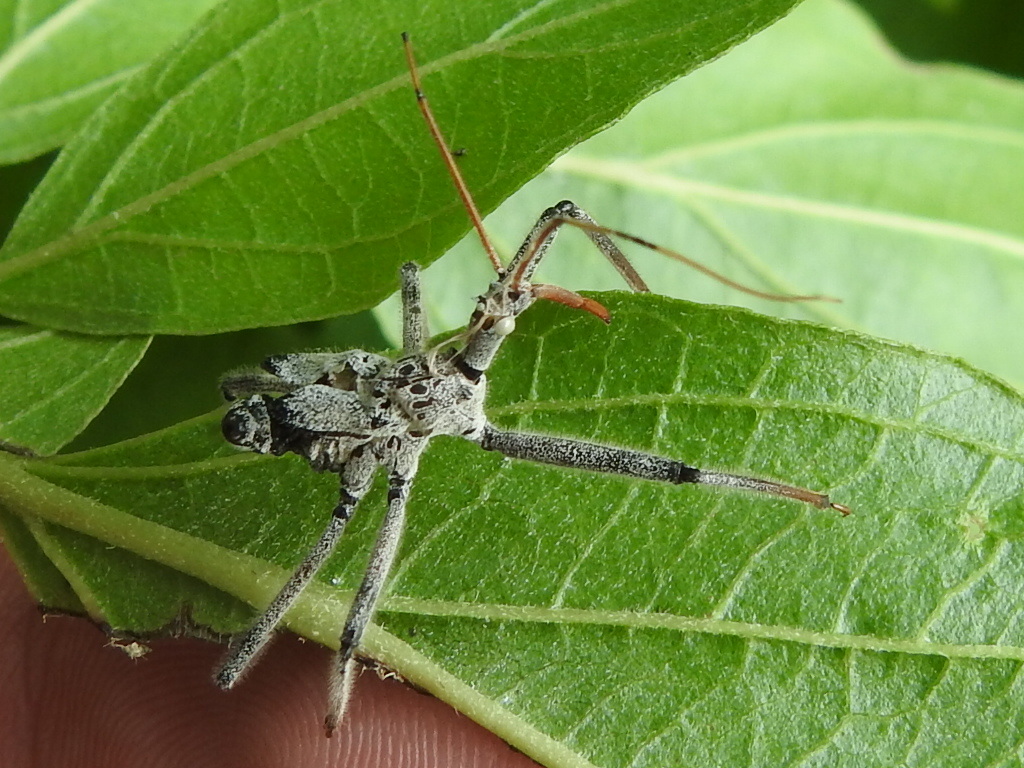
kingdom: Animalia
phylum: Arthropoda
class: Insecta
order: Hemiptera
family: Reduviidae
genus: Arilus
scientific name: Arilus cristatus
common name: North american wheel bug
